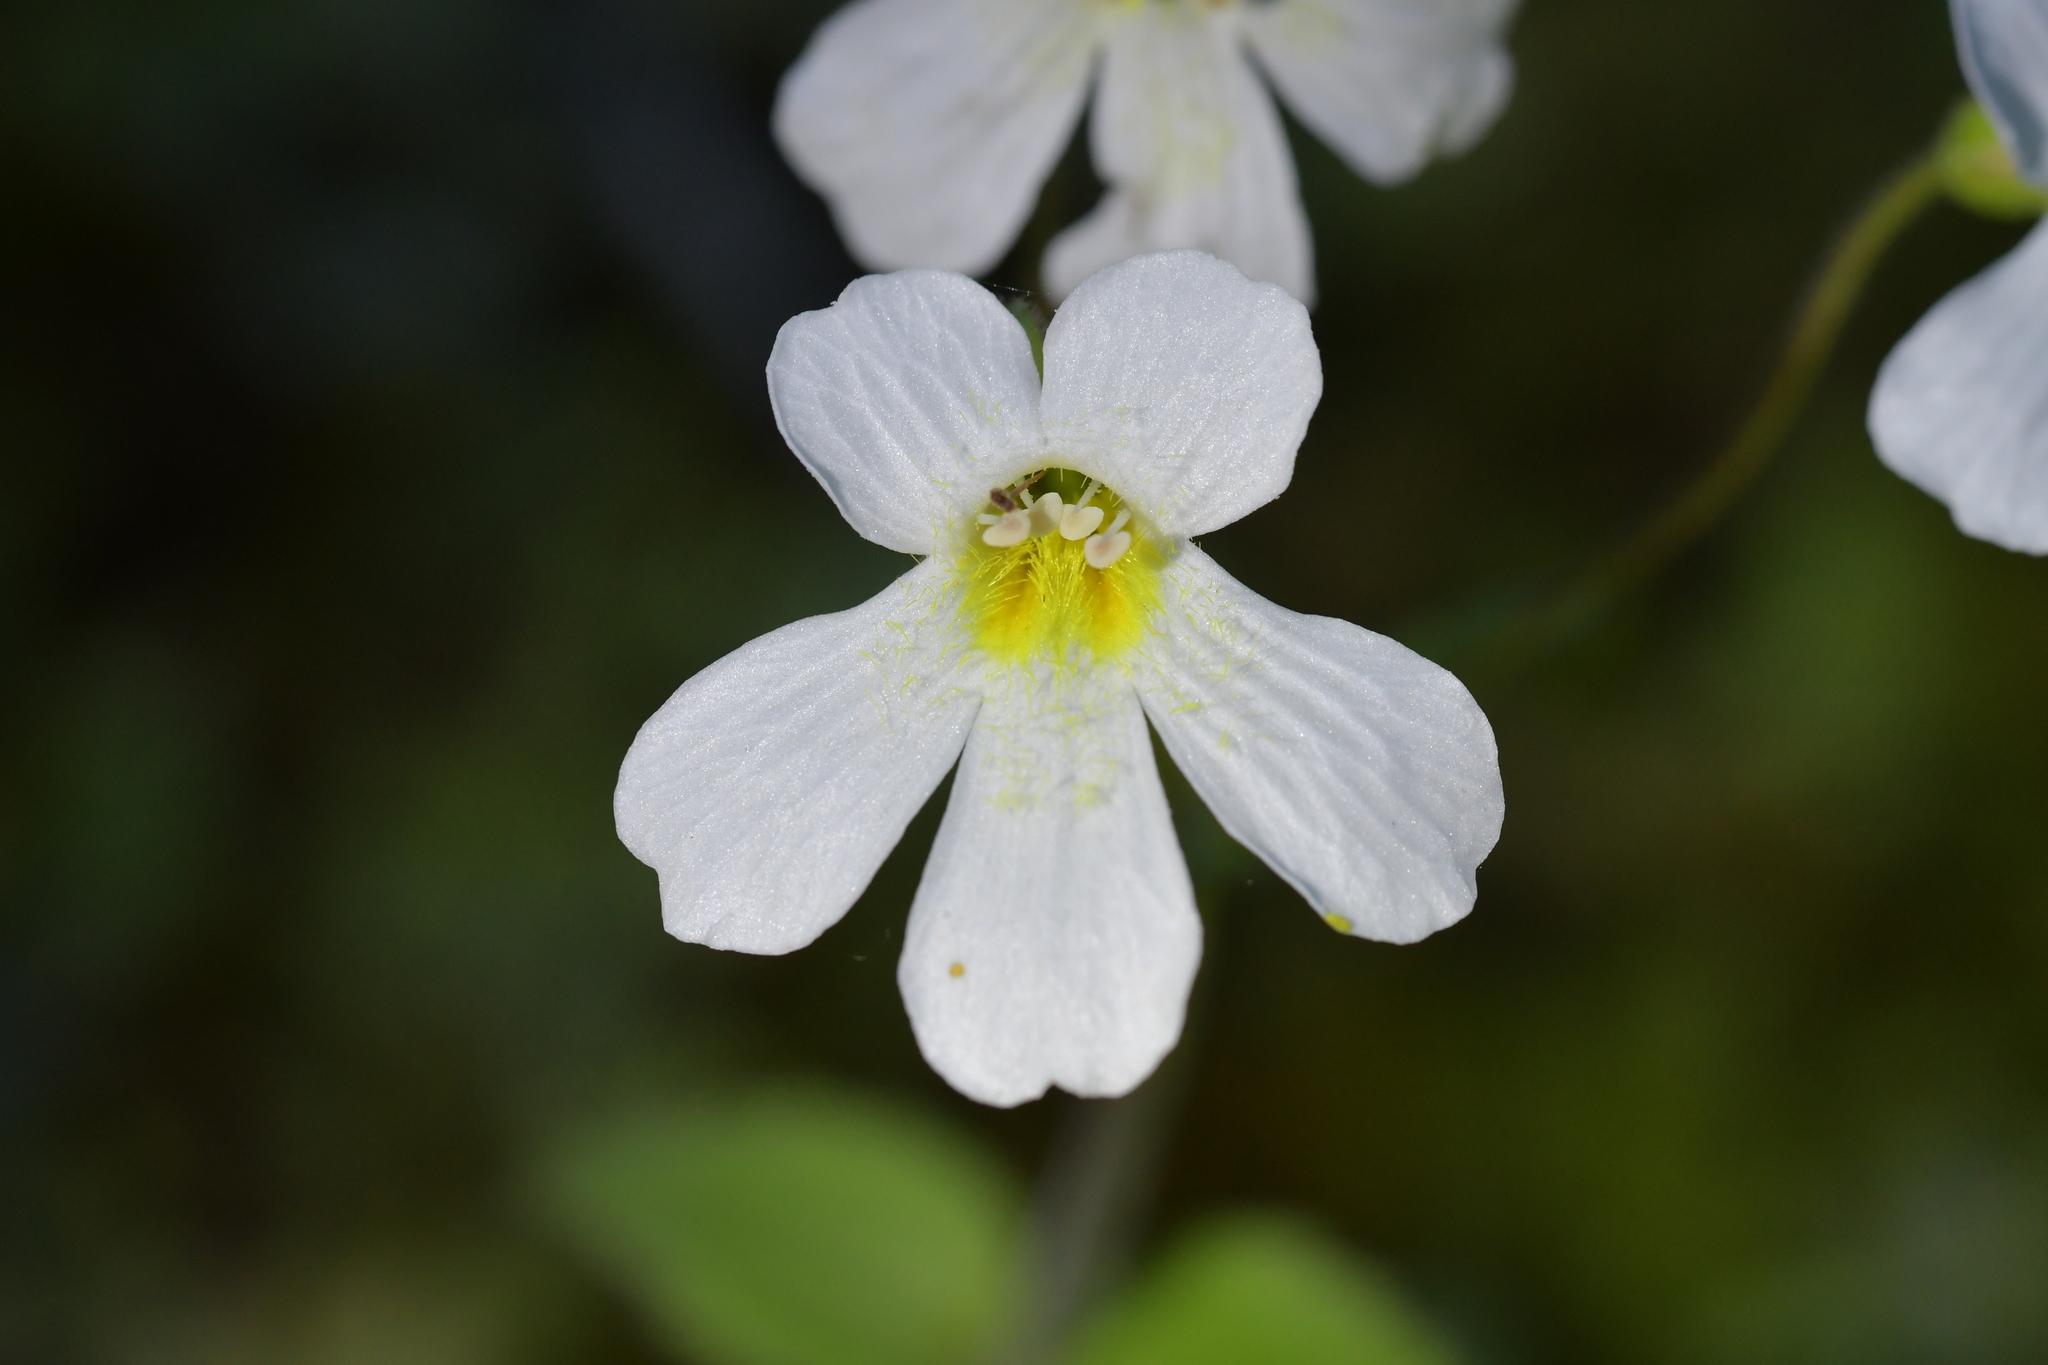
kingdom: Plantae
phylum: Tracheophyta
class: Magnoliopsida
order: Lamiales
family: Plantaginaceae
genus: Ourisia
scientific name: Ourisia macrophylla
